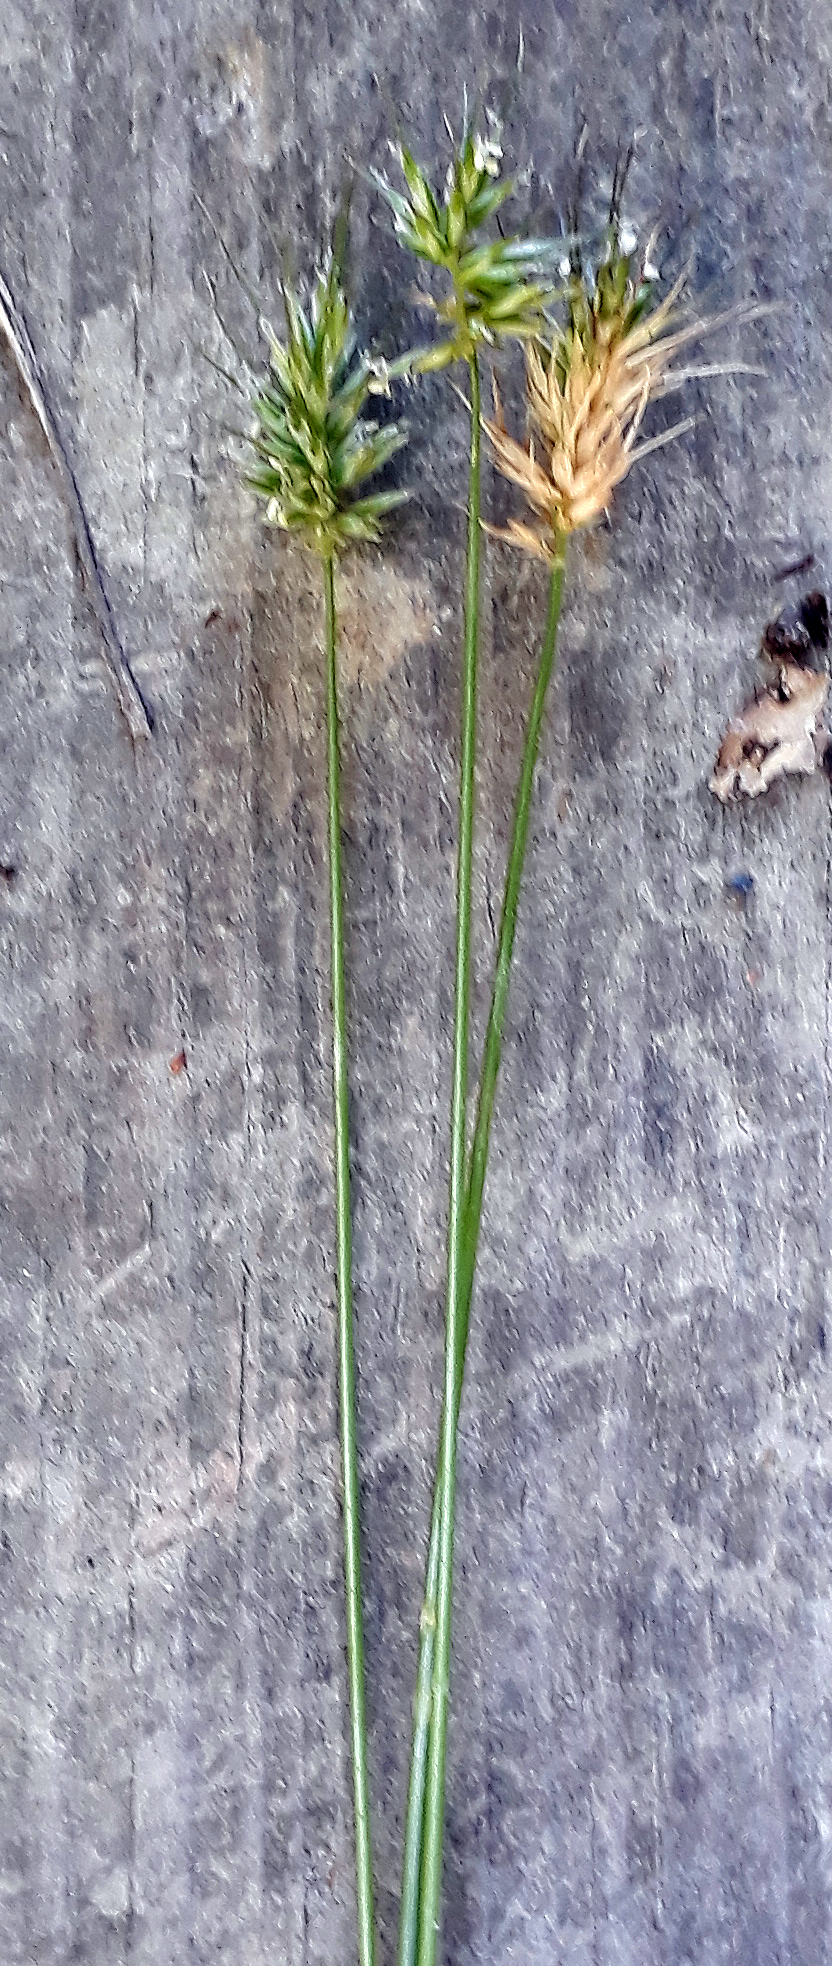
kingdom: Plantae
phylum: Tracheophyta
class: Liliopsida
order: Poales
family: Poaceae
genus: Echinopogon
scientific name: Echinopogon ovatus
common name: Hedgehog-grass
